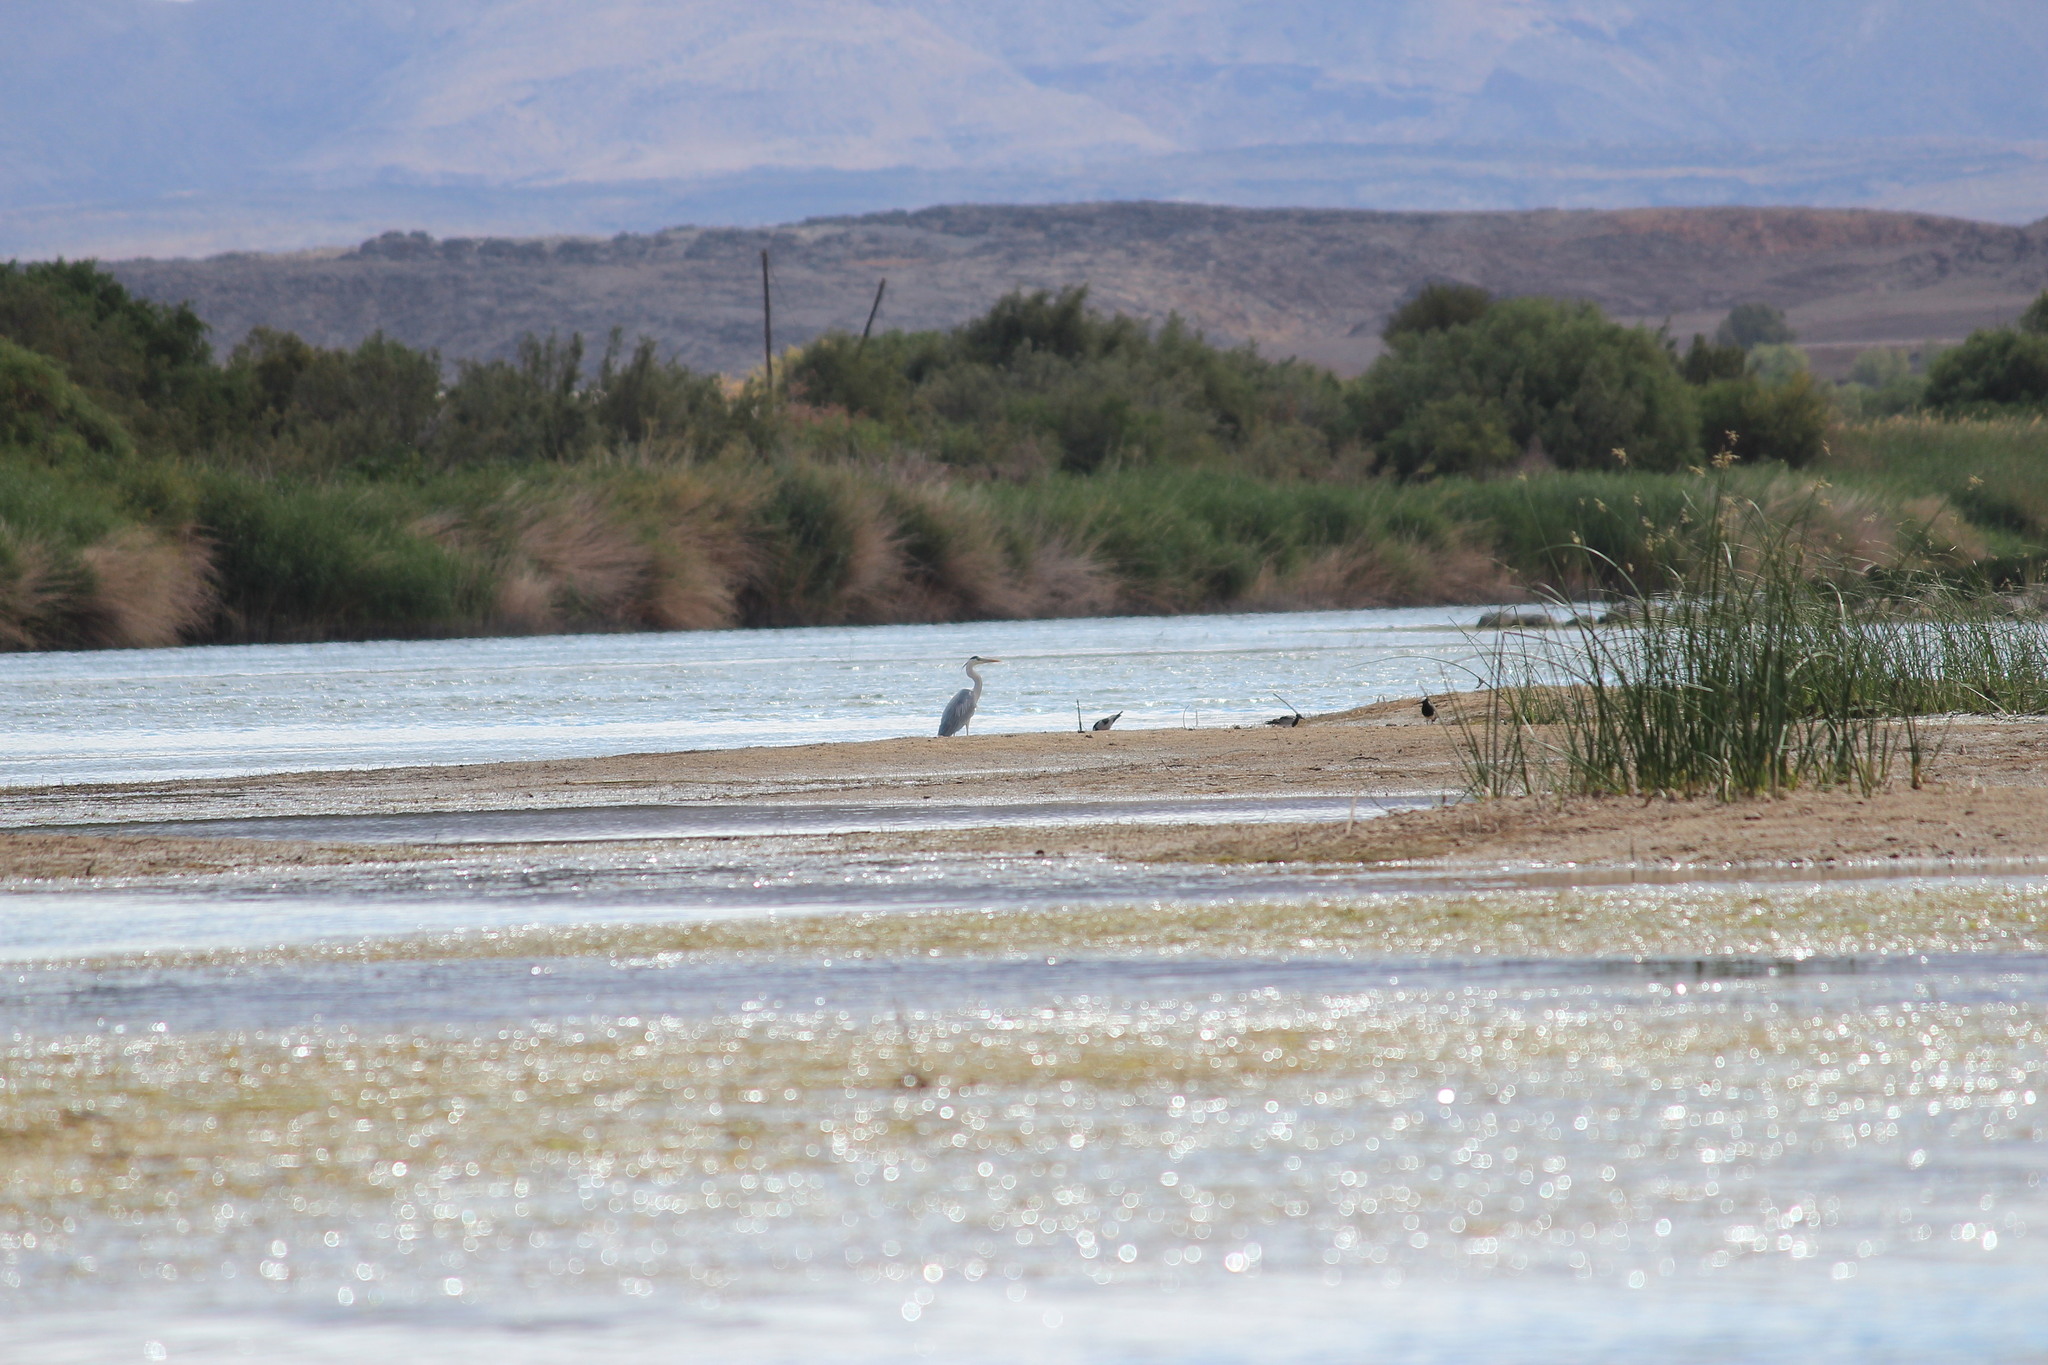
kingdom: Animalia
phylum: Chordata
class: Aves
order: Pelecaniformes
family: Ardeidae
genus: Ardea
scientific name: Ardea cinerea
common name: Grey heron
